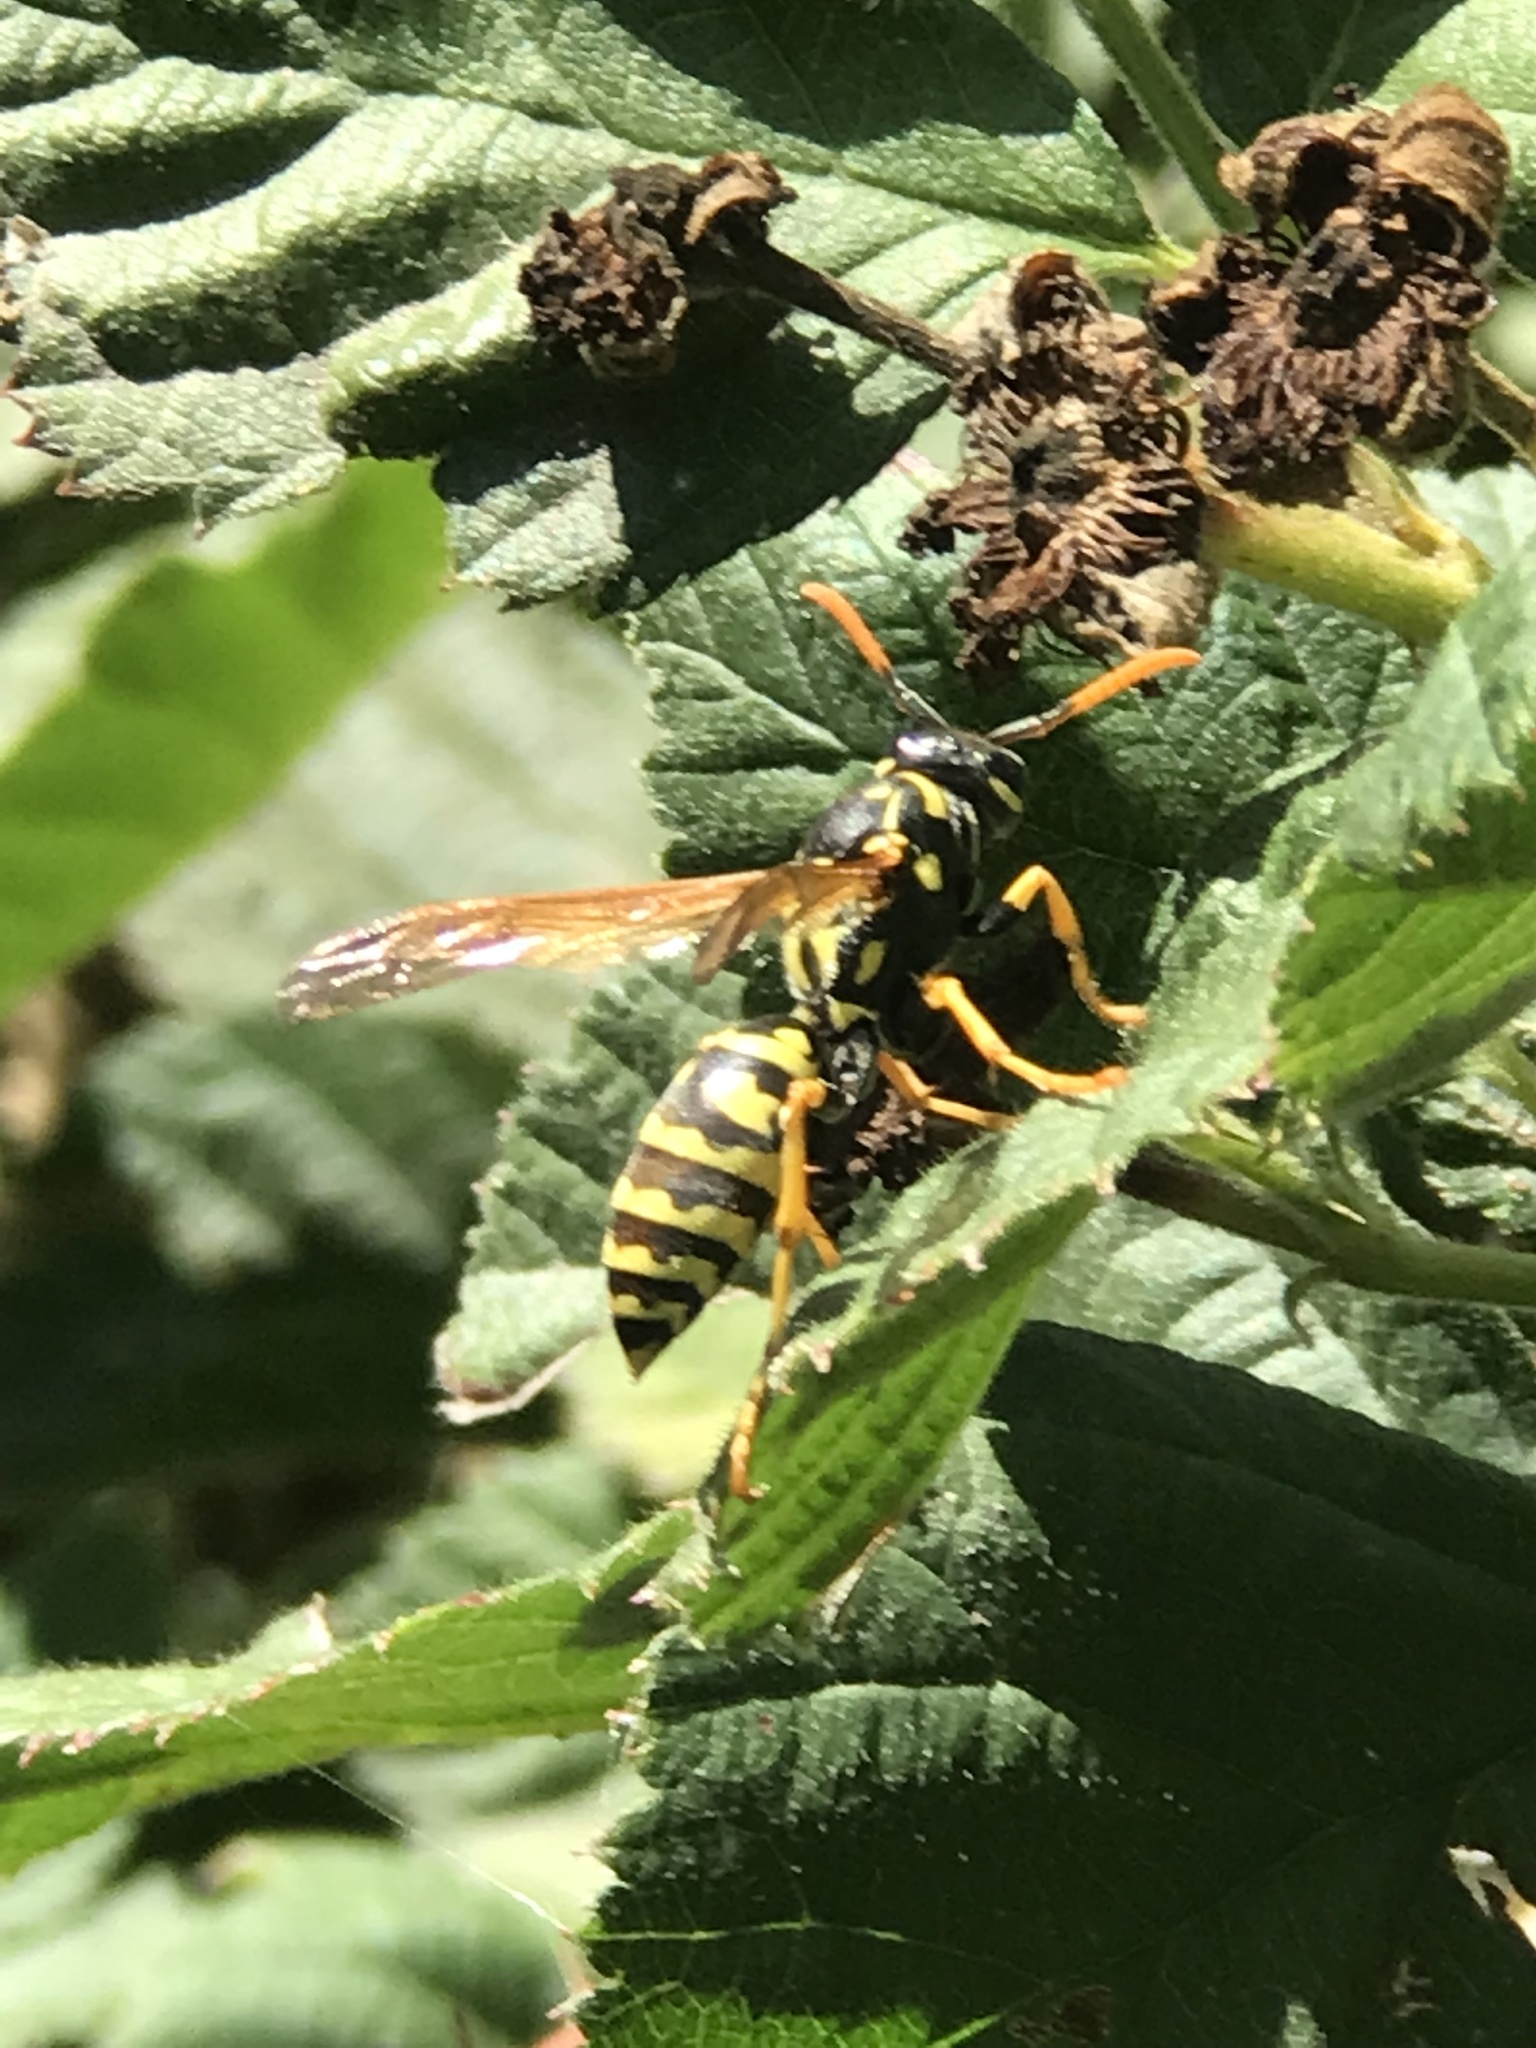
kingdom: Animalia
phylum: Arthropoda
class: Insecta
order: Hymenoptera
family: Eumenidae
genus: Polistes
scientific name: Polistes dominula
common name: Paper wasp
